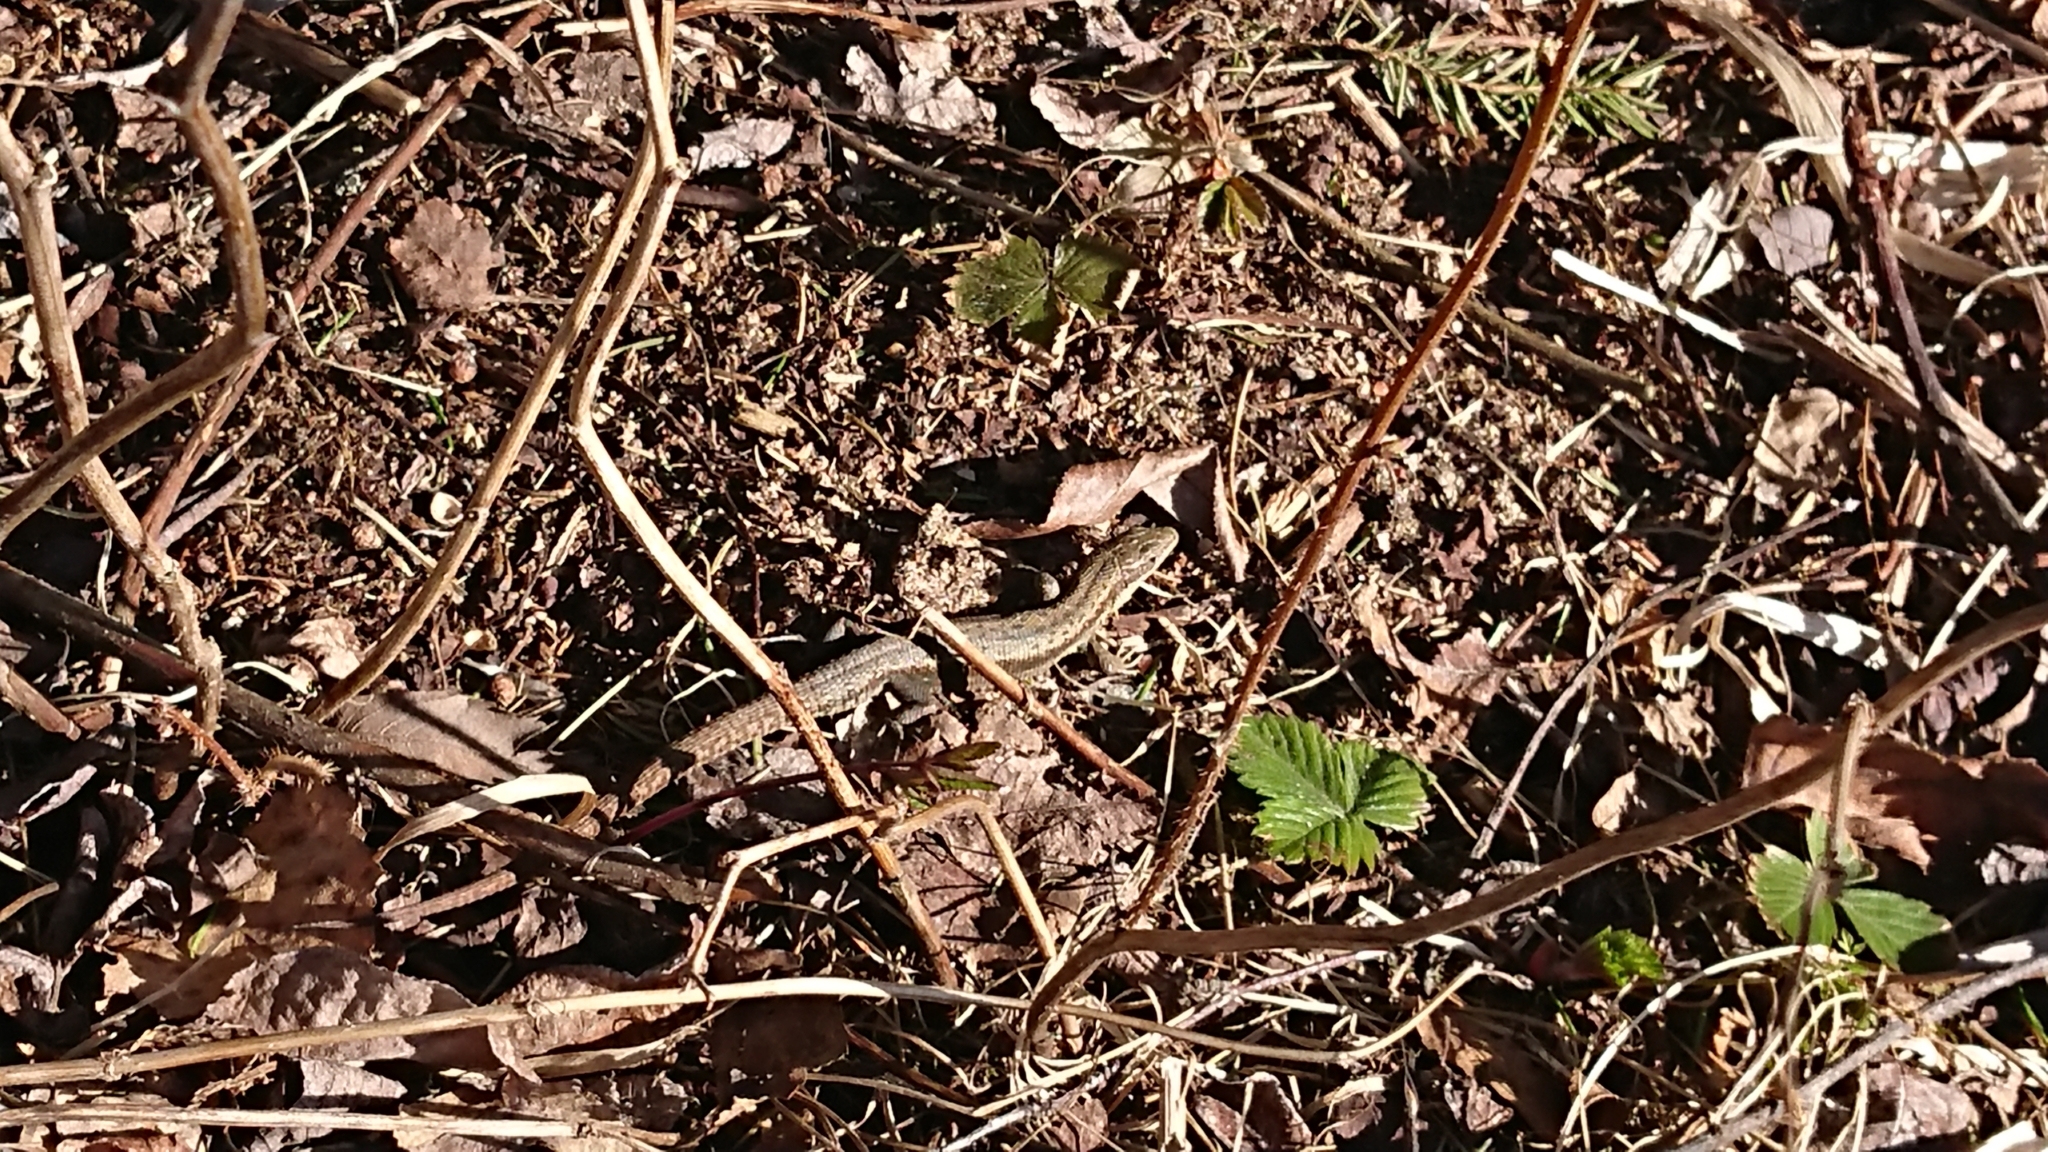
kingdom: Animalia
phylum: Chordata
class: Squamata
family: Lacertidae
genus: Zootoca
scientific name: Zootoca vivipara
